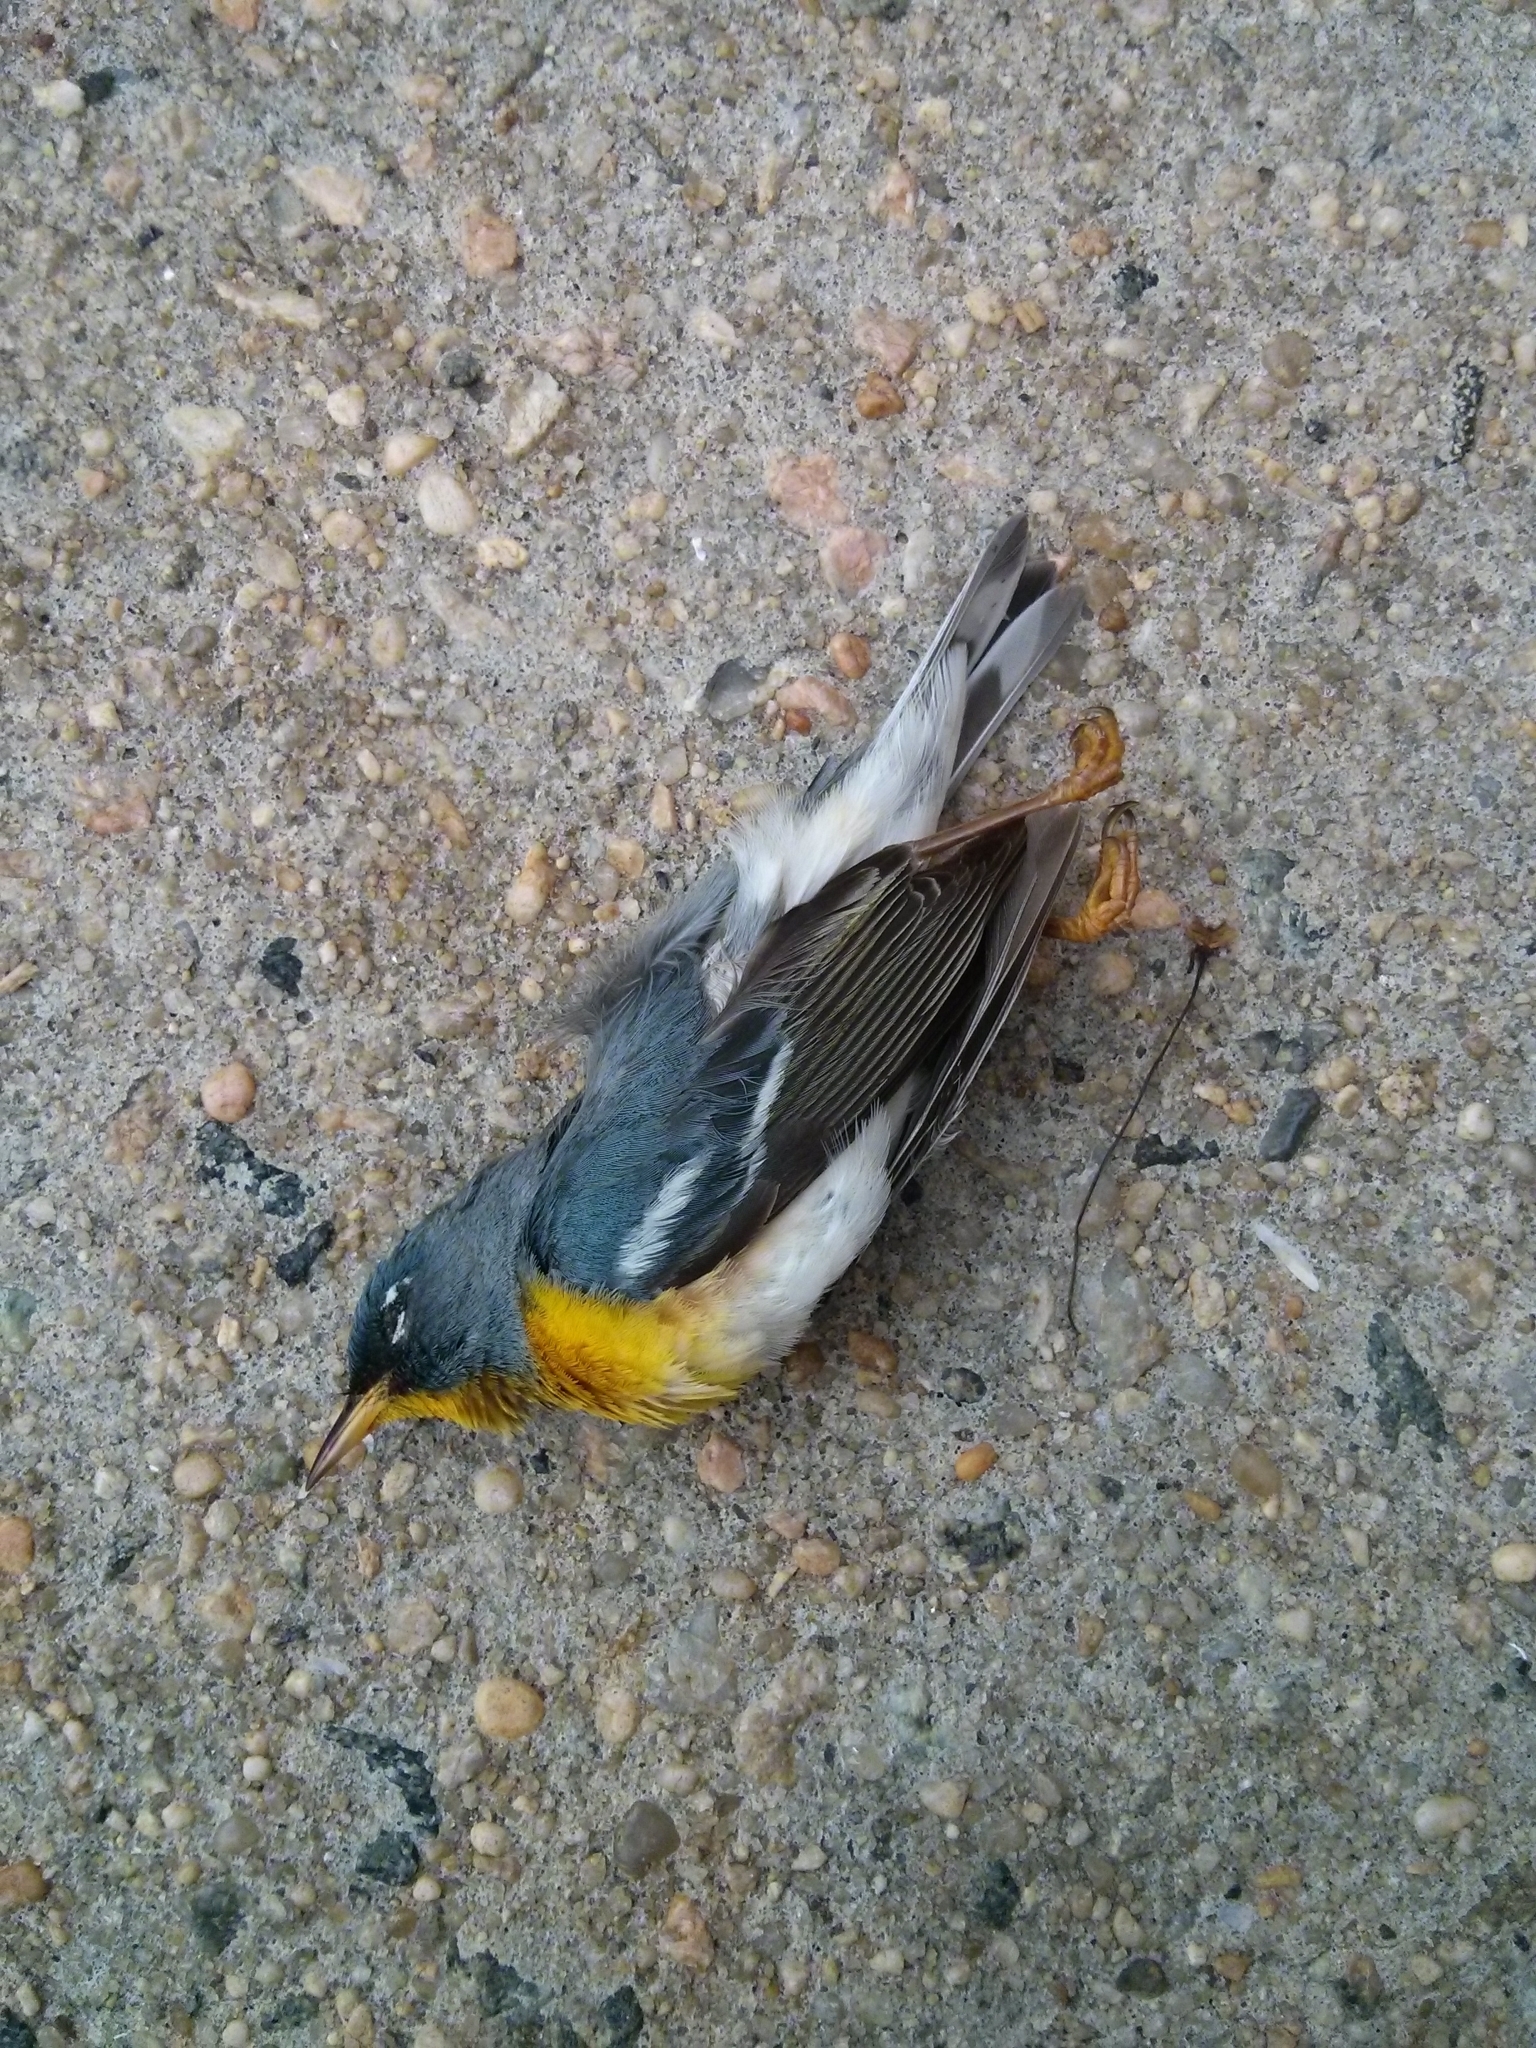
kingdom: Animalia
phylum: Chordata
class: Aves
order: Passeriformes
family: Parulidae
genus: Setophaga
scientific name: Setophaga americana
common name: Northern parula
